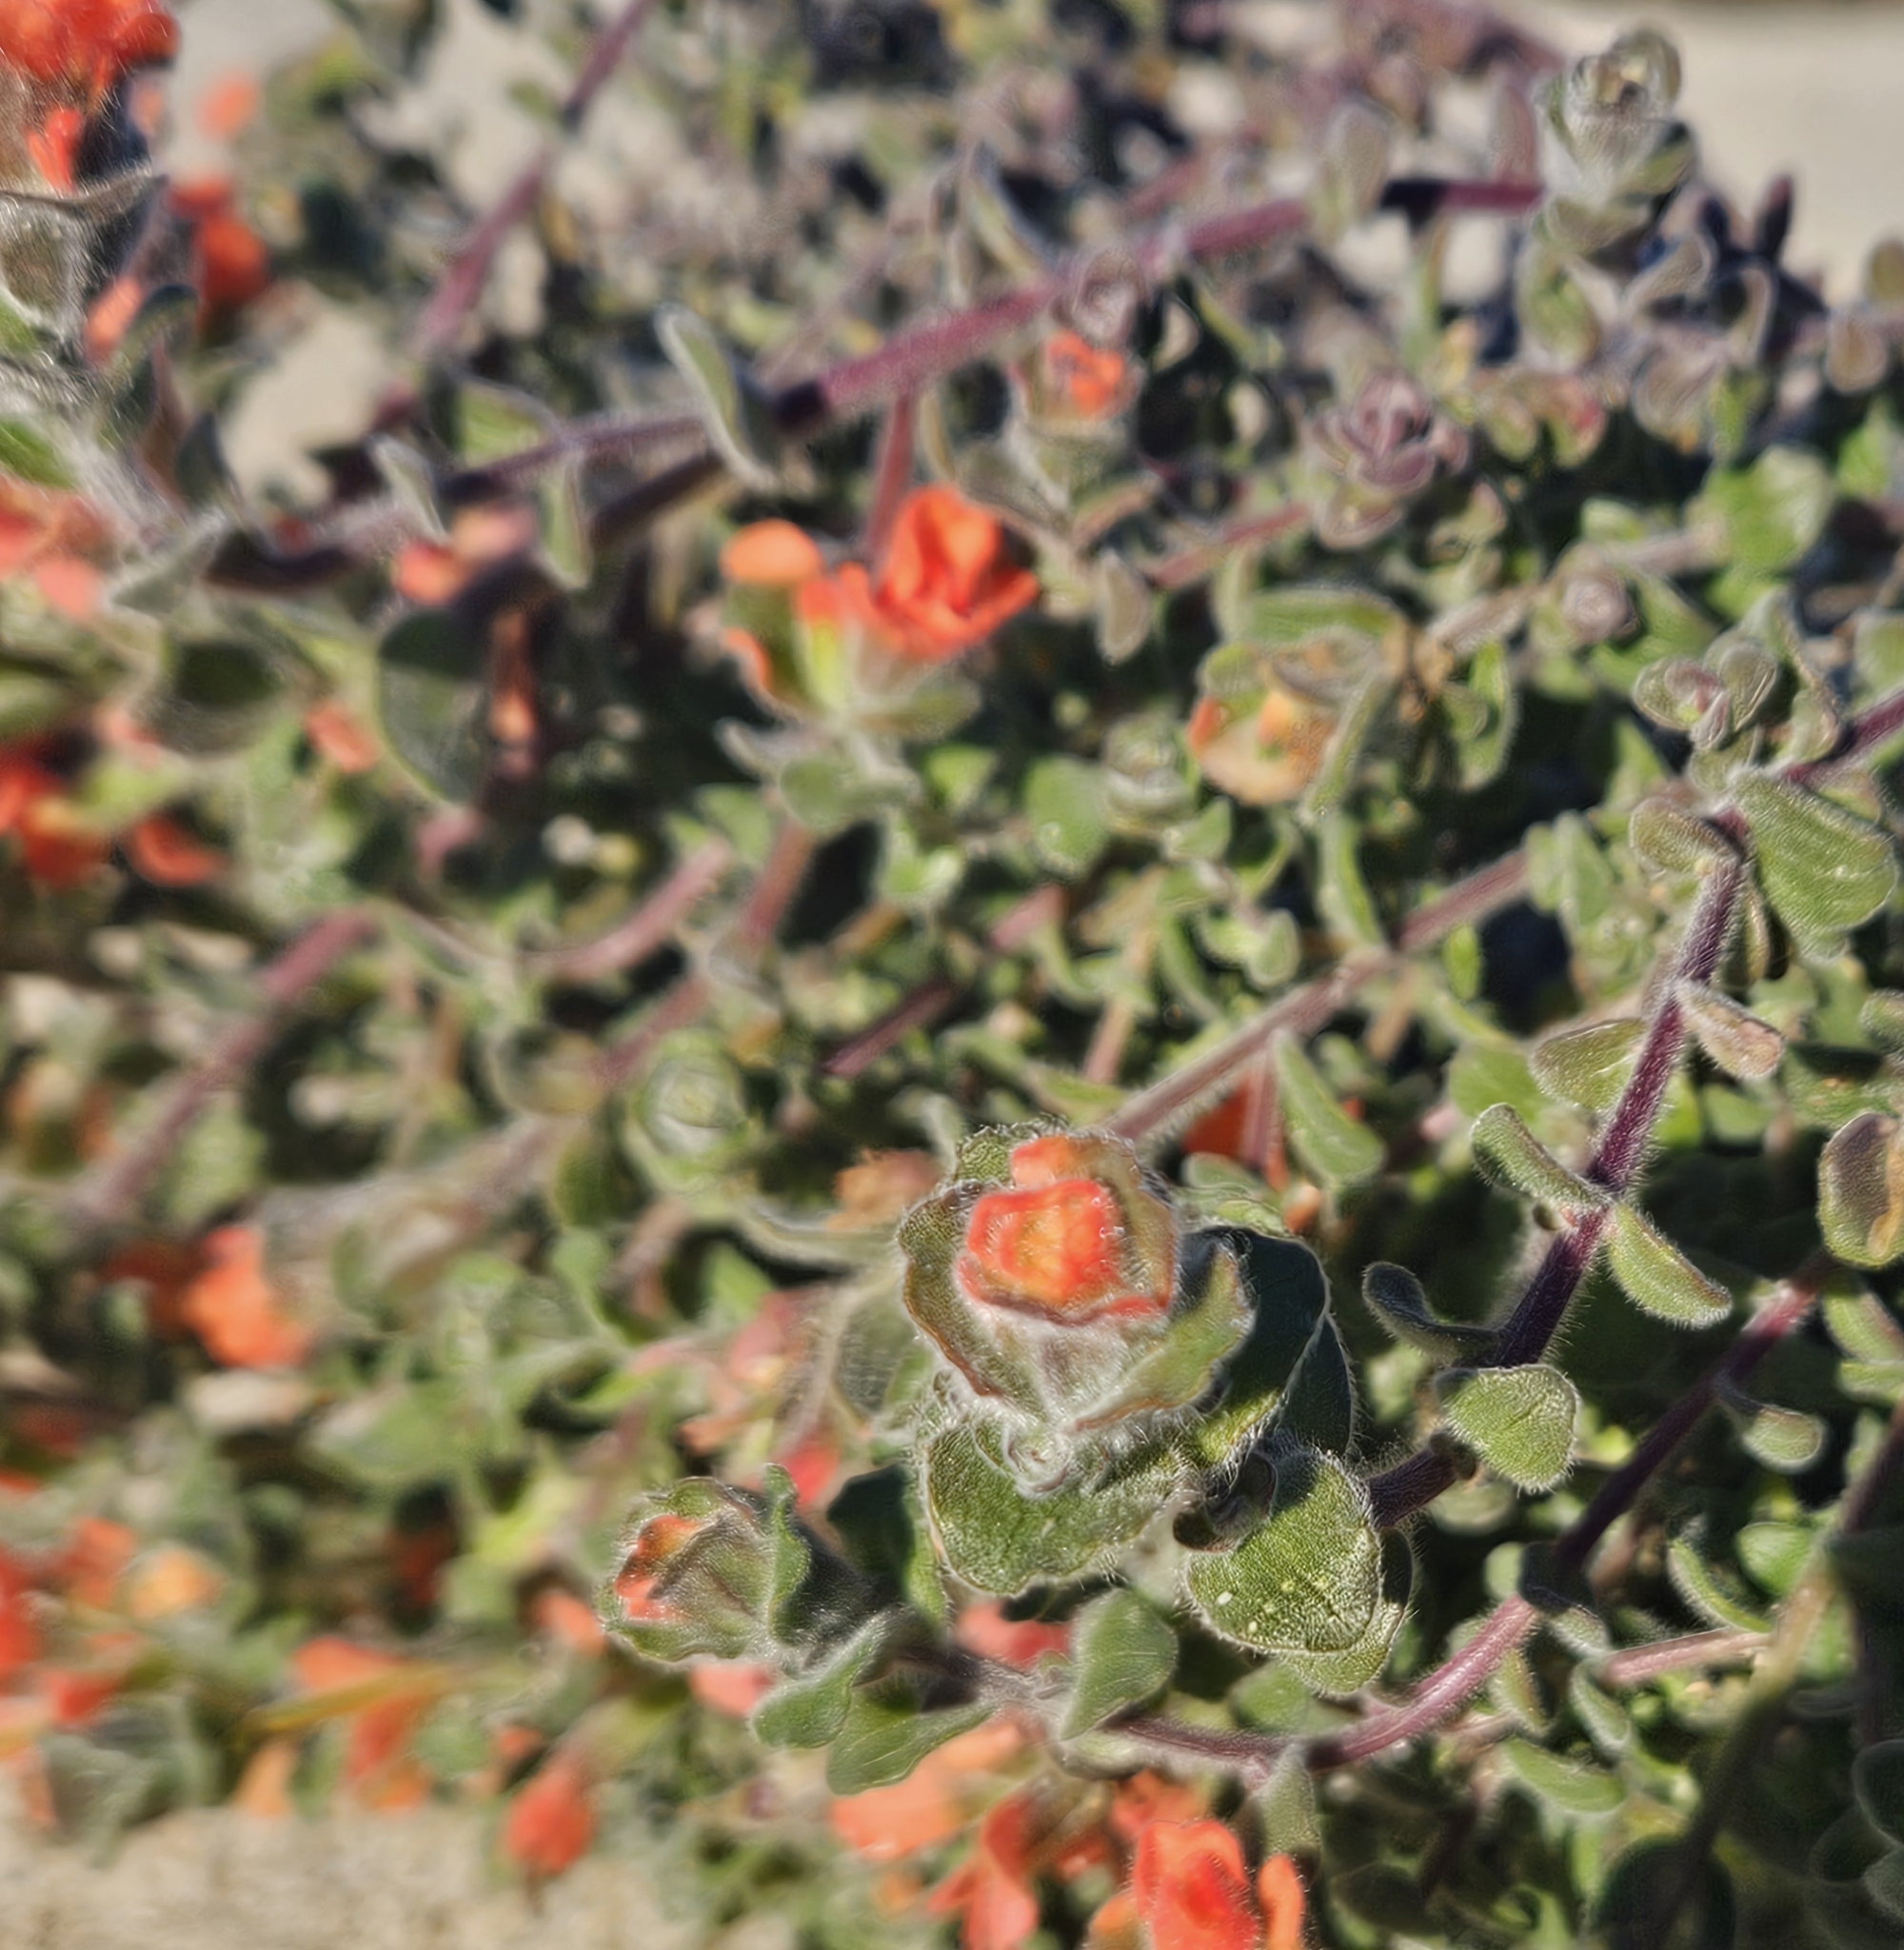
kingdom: Plantae
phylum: Tracheophyta
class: Magnoliopsida
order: Lamiales
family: Orobanchaceae
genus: Castilleja
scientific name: Castilleja latifolia
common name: Monterey indian paintbrush
